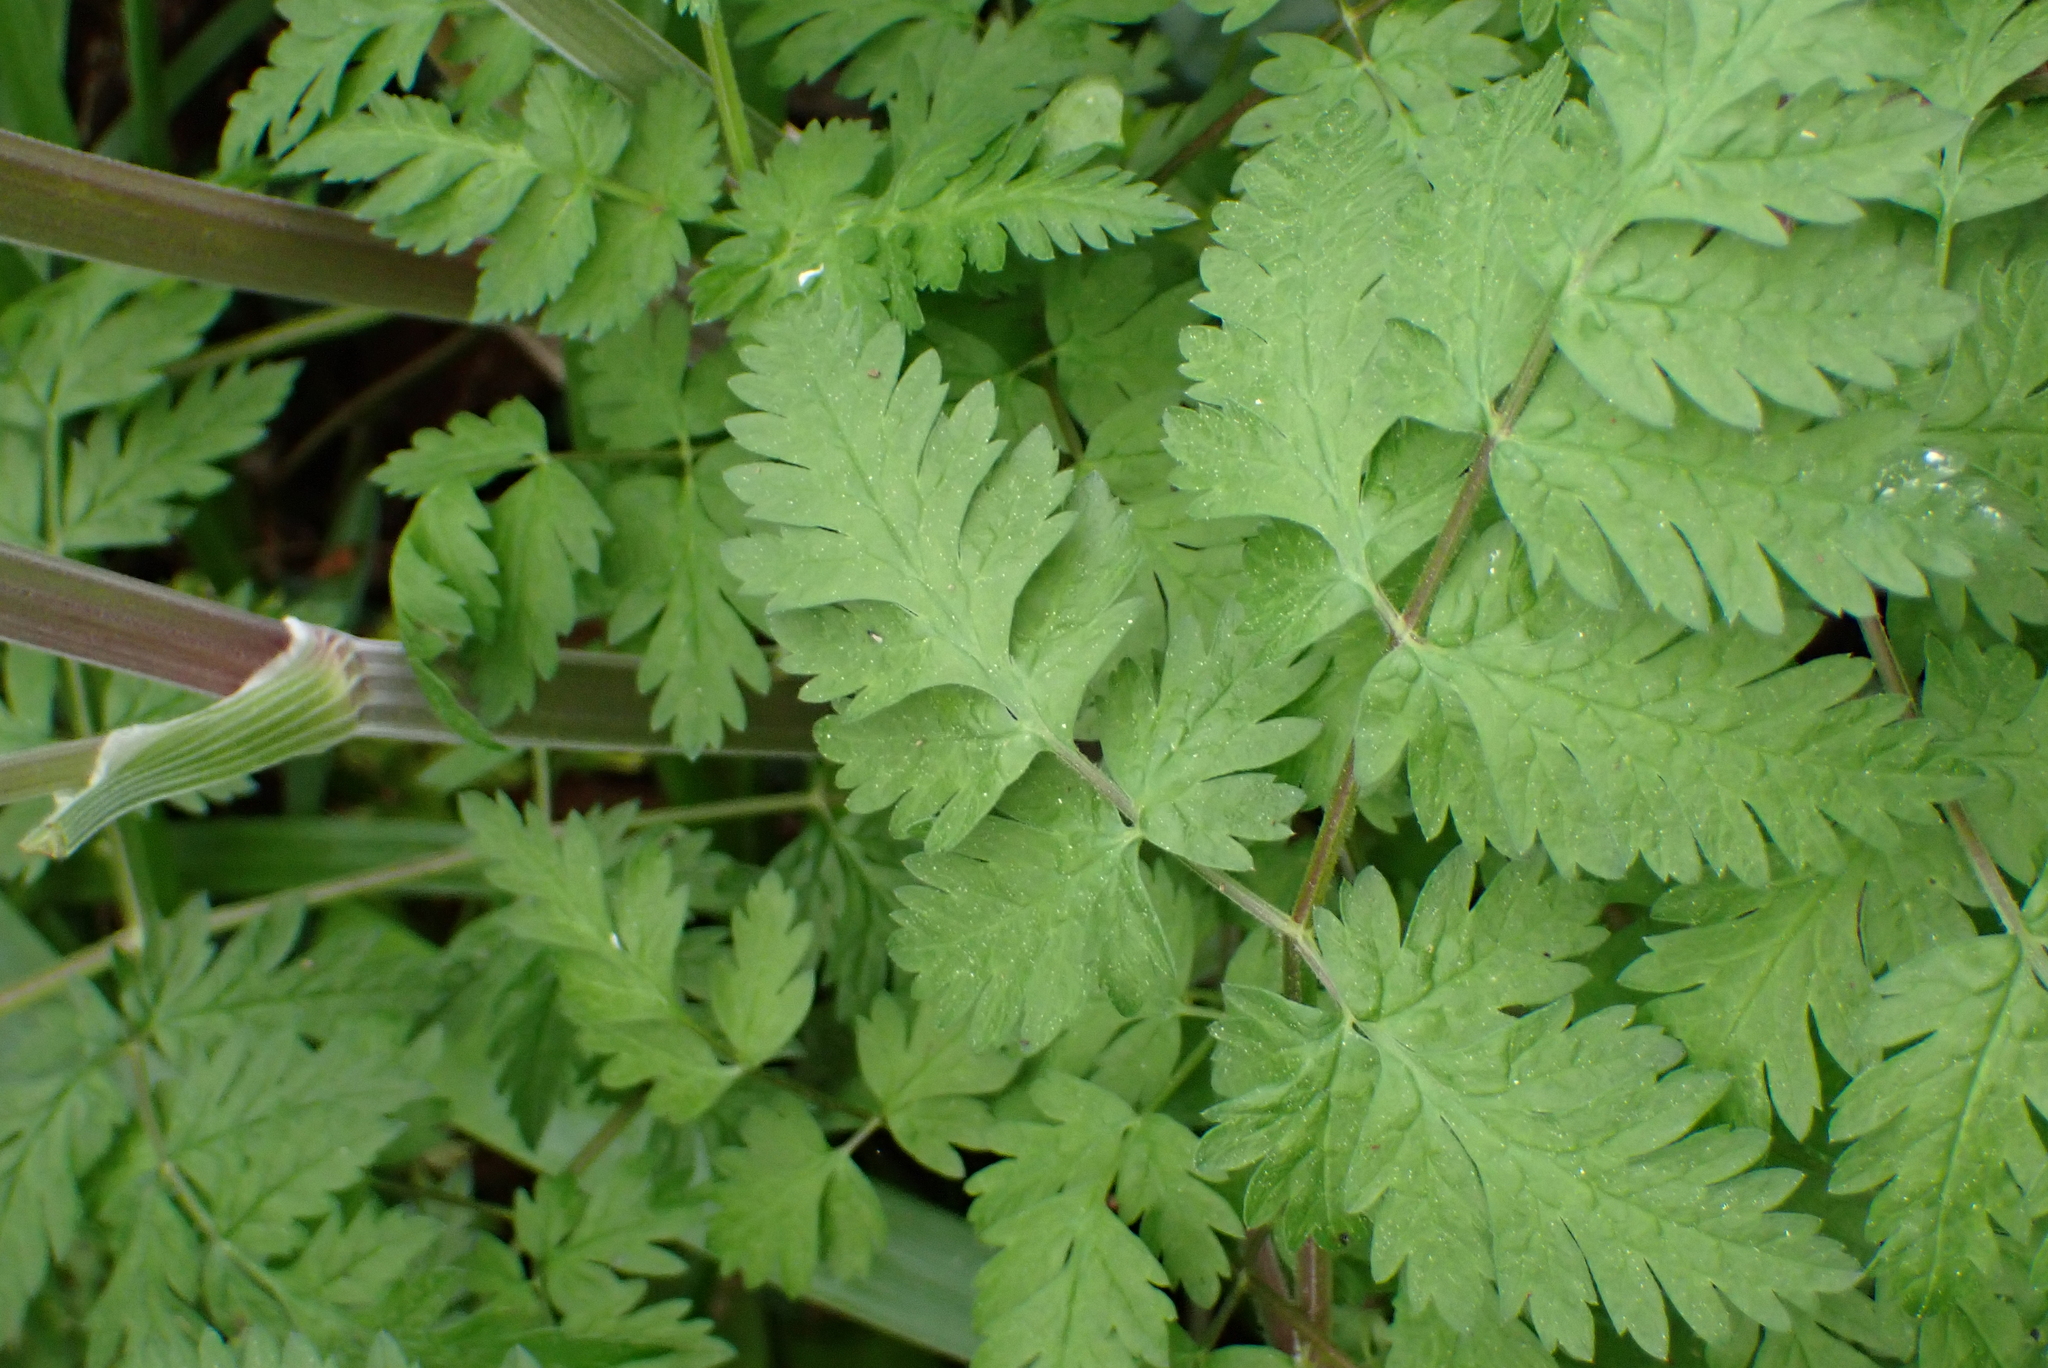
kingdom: Plantae
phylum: Tracheophyta
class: Magnoliopsida
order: Apiales
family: Apiaceae
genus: Anthriscus
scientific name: Anthriscus sylvestris
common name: Cow parsley
